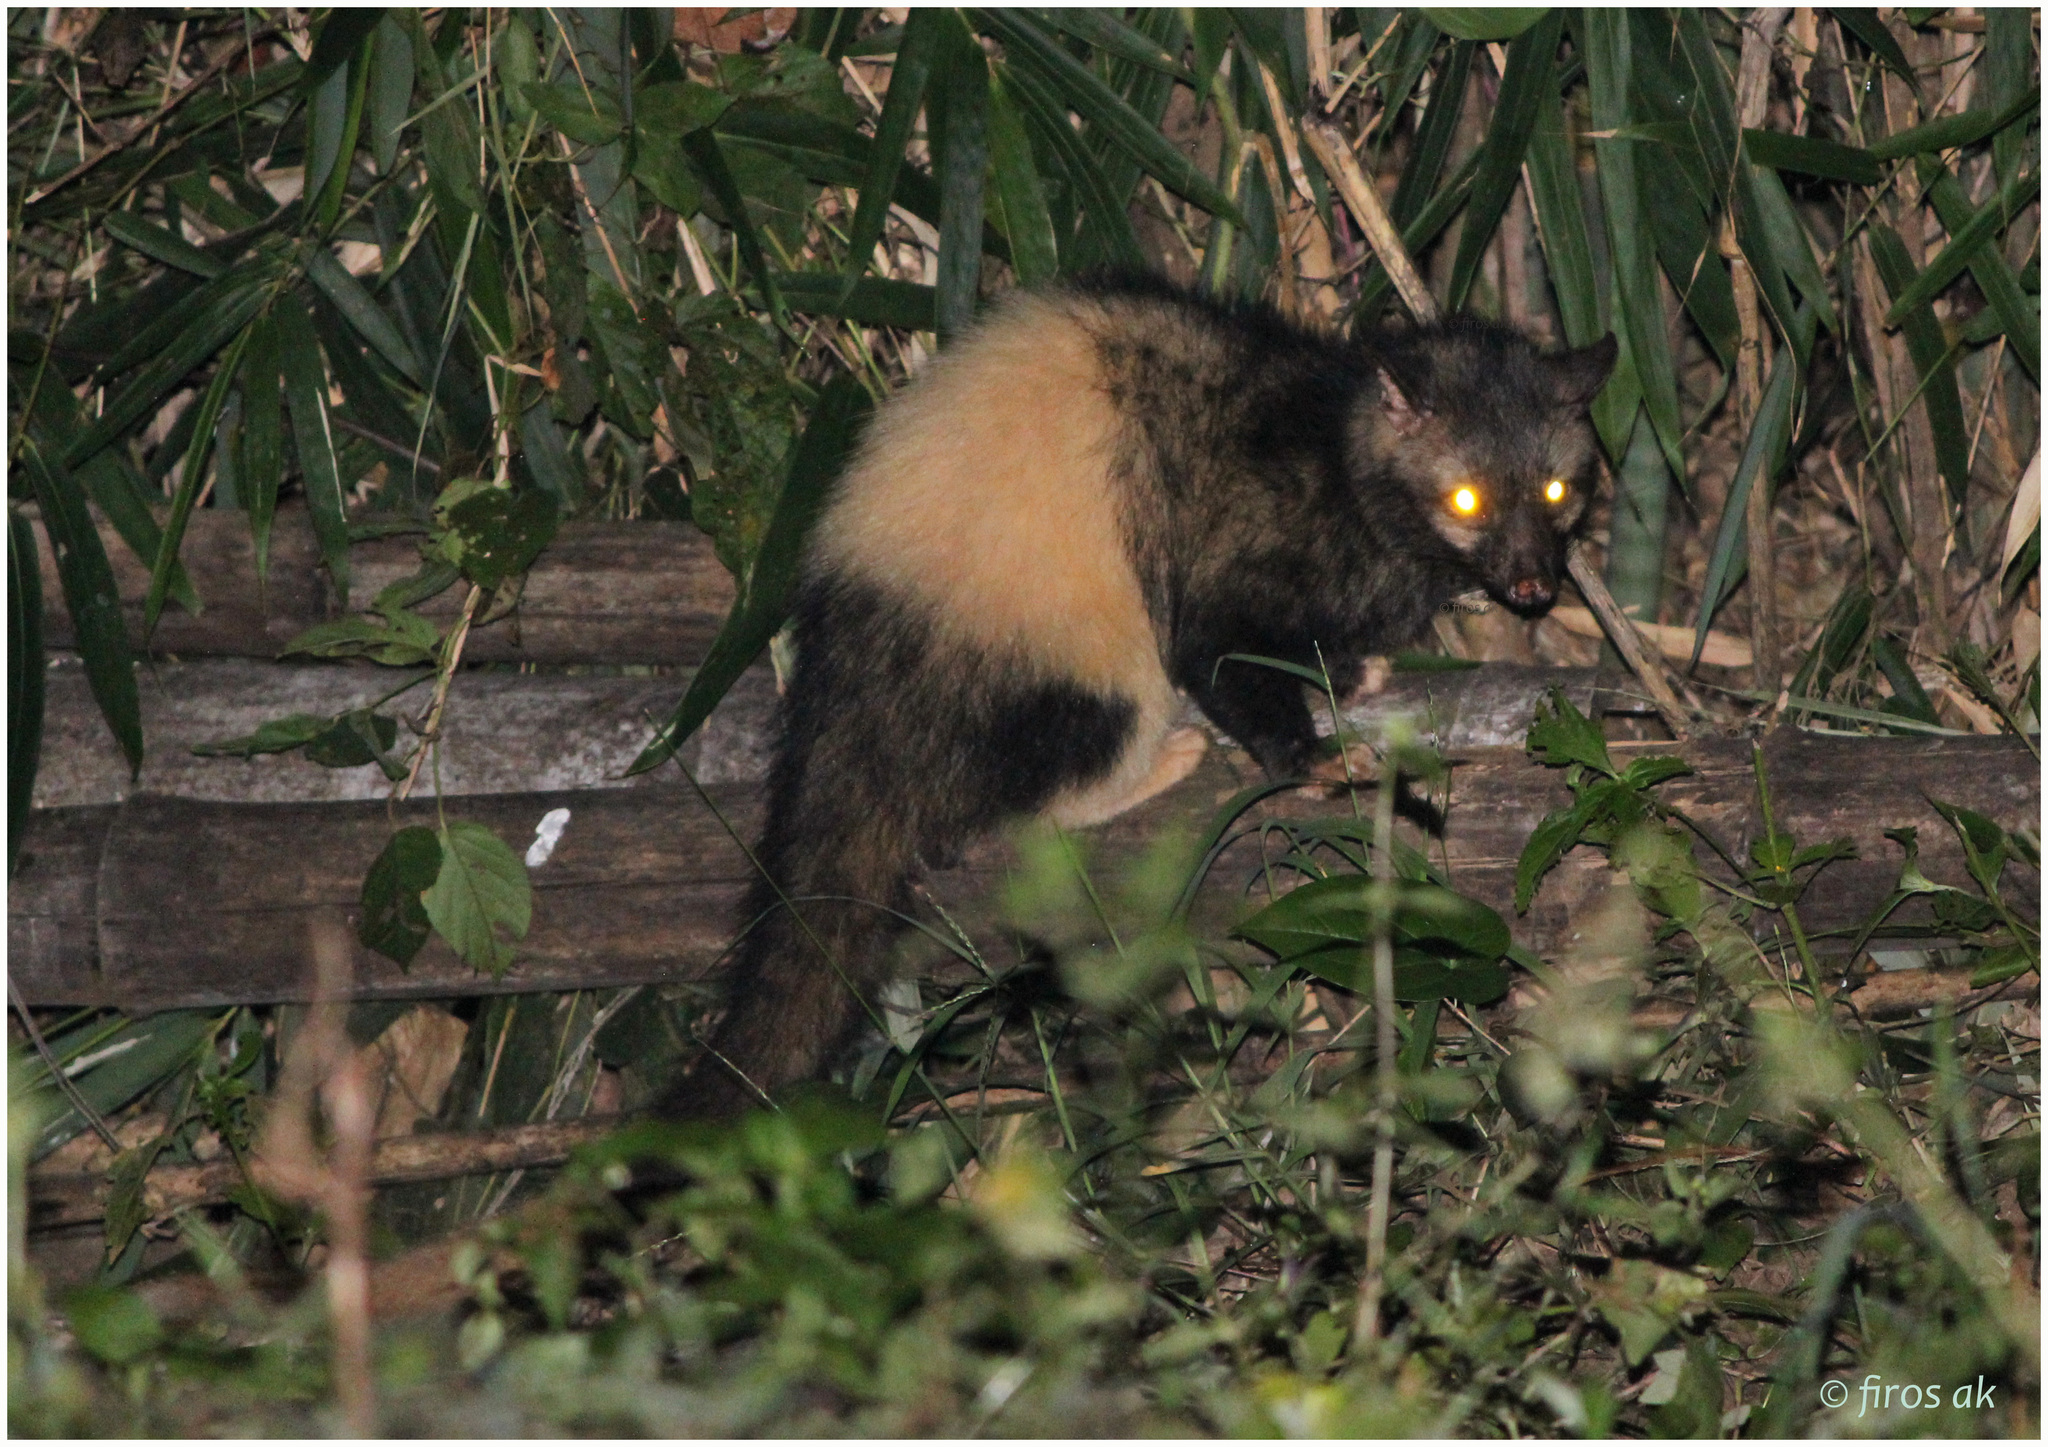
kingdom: Animalia
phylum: Chordata
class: Mammalia
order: Carnivora
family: Viverridae
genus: Paradoxurus
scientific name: Paradoxurus hermaphroditus
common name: Common palm civet
